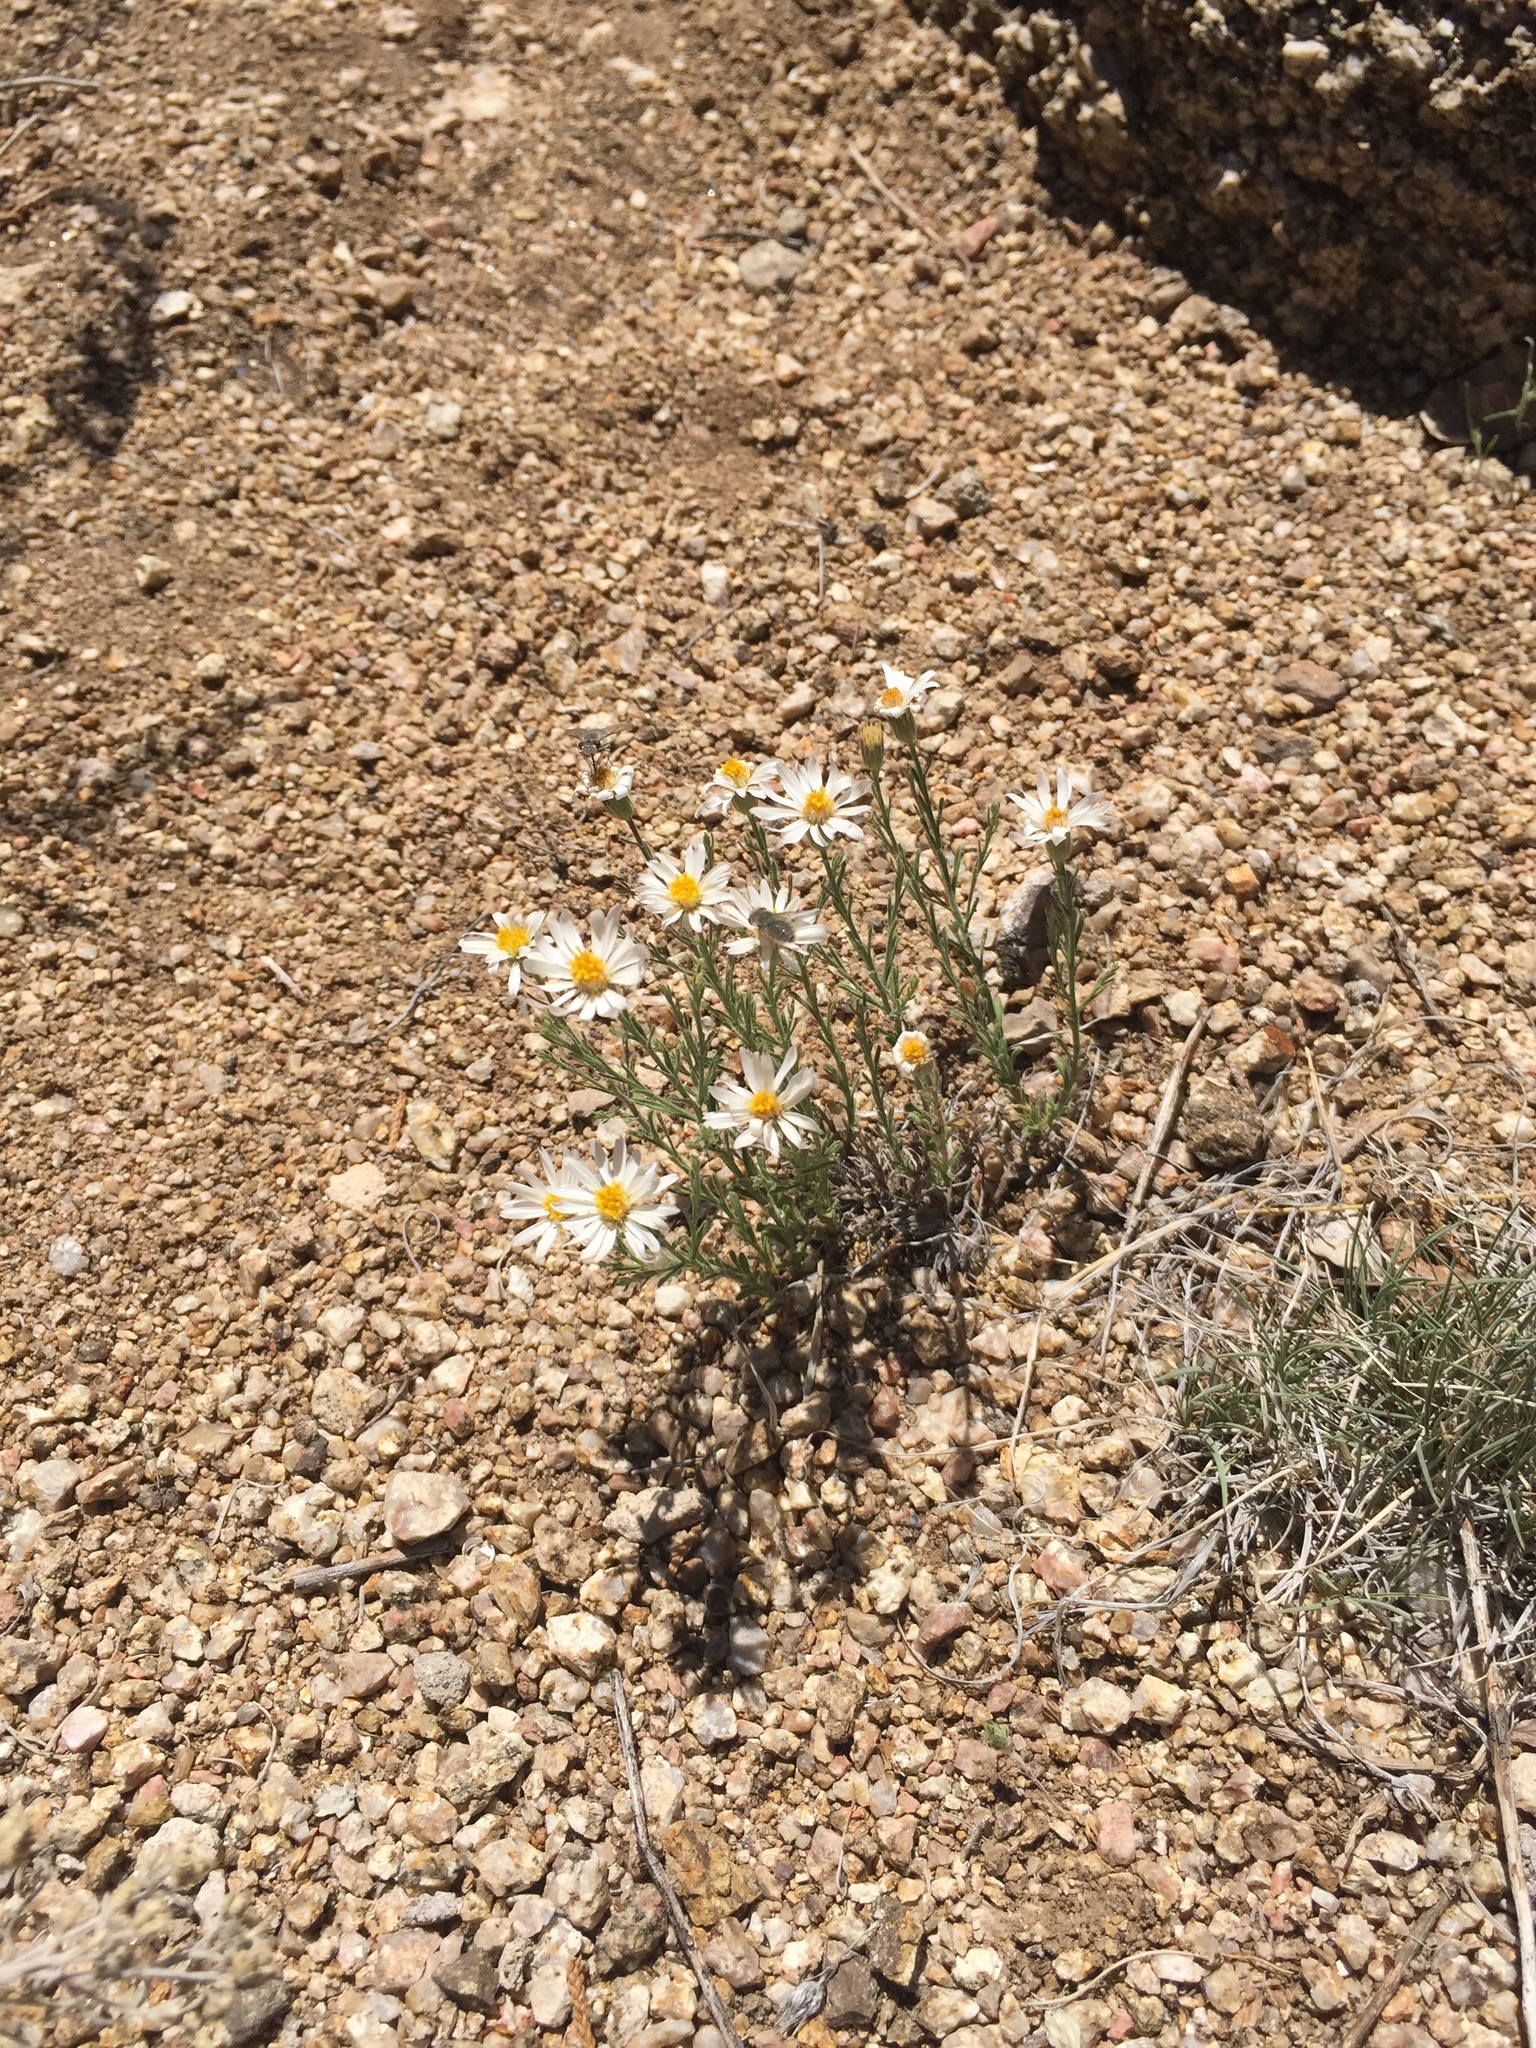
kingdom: Plantae
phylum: Tracheophyta
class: Magnoliopsida
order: Asterales
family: Asteraceae
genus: Chaetopappa
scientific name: Chaetopappa ericoides
